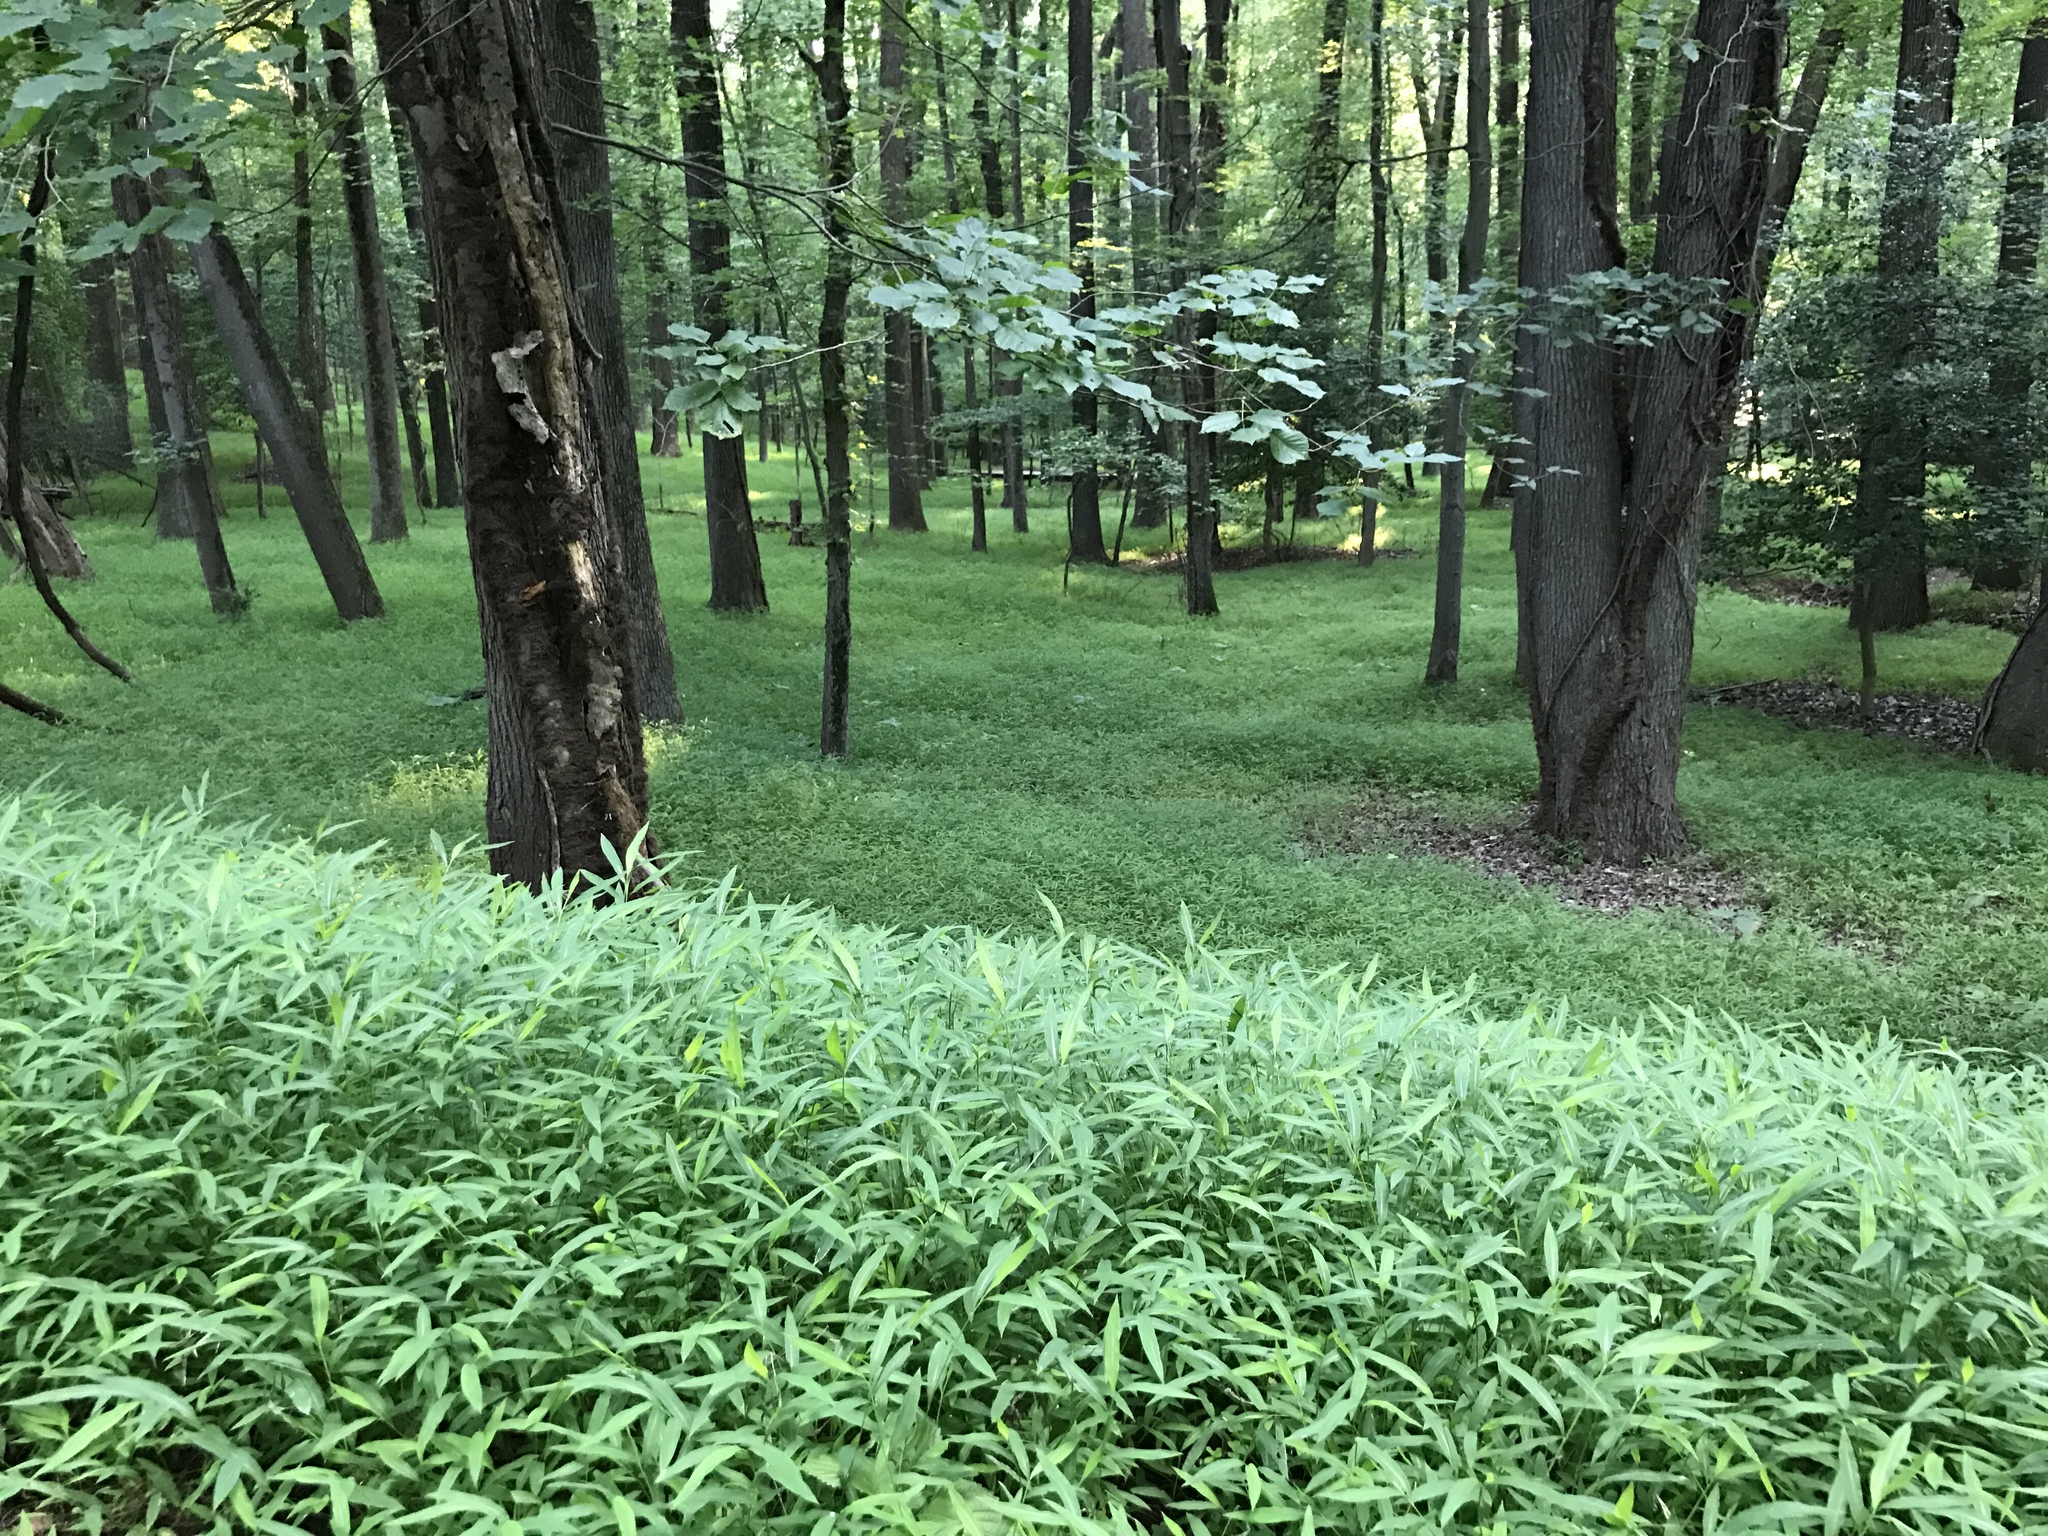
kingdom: Plantae
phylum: Tracheophyta
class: Liliopsida
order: Poales
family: Poaceae
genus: Microstegium
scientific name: Microstegium vimineum
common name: Japanese stiltgrass
